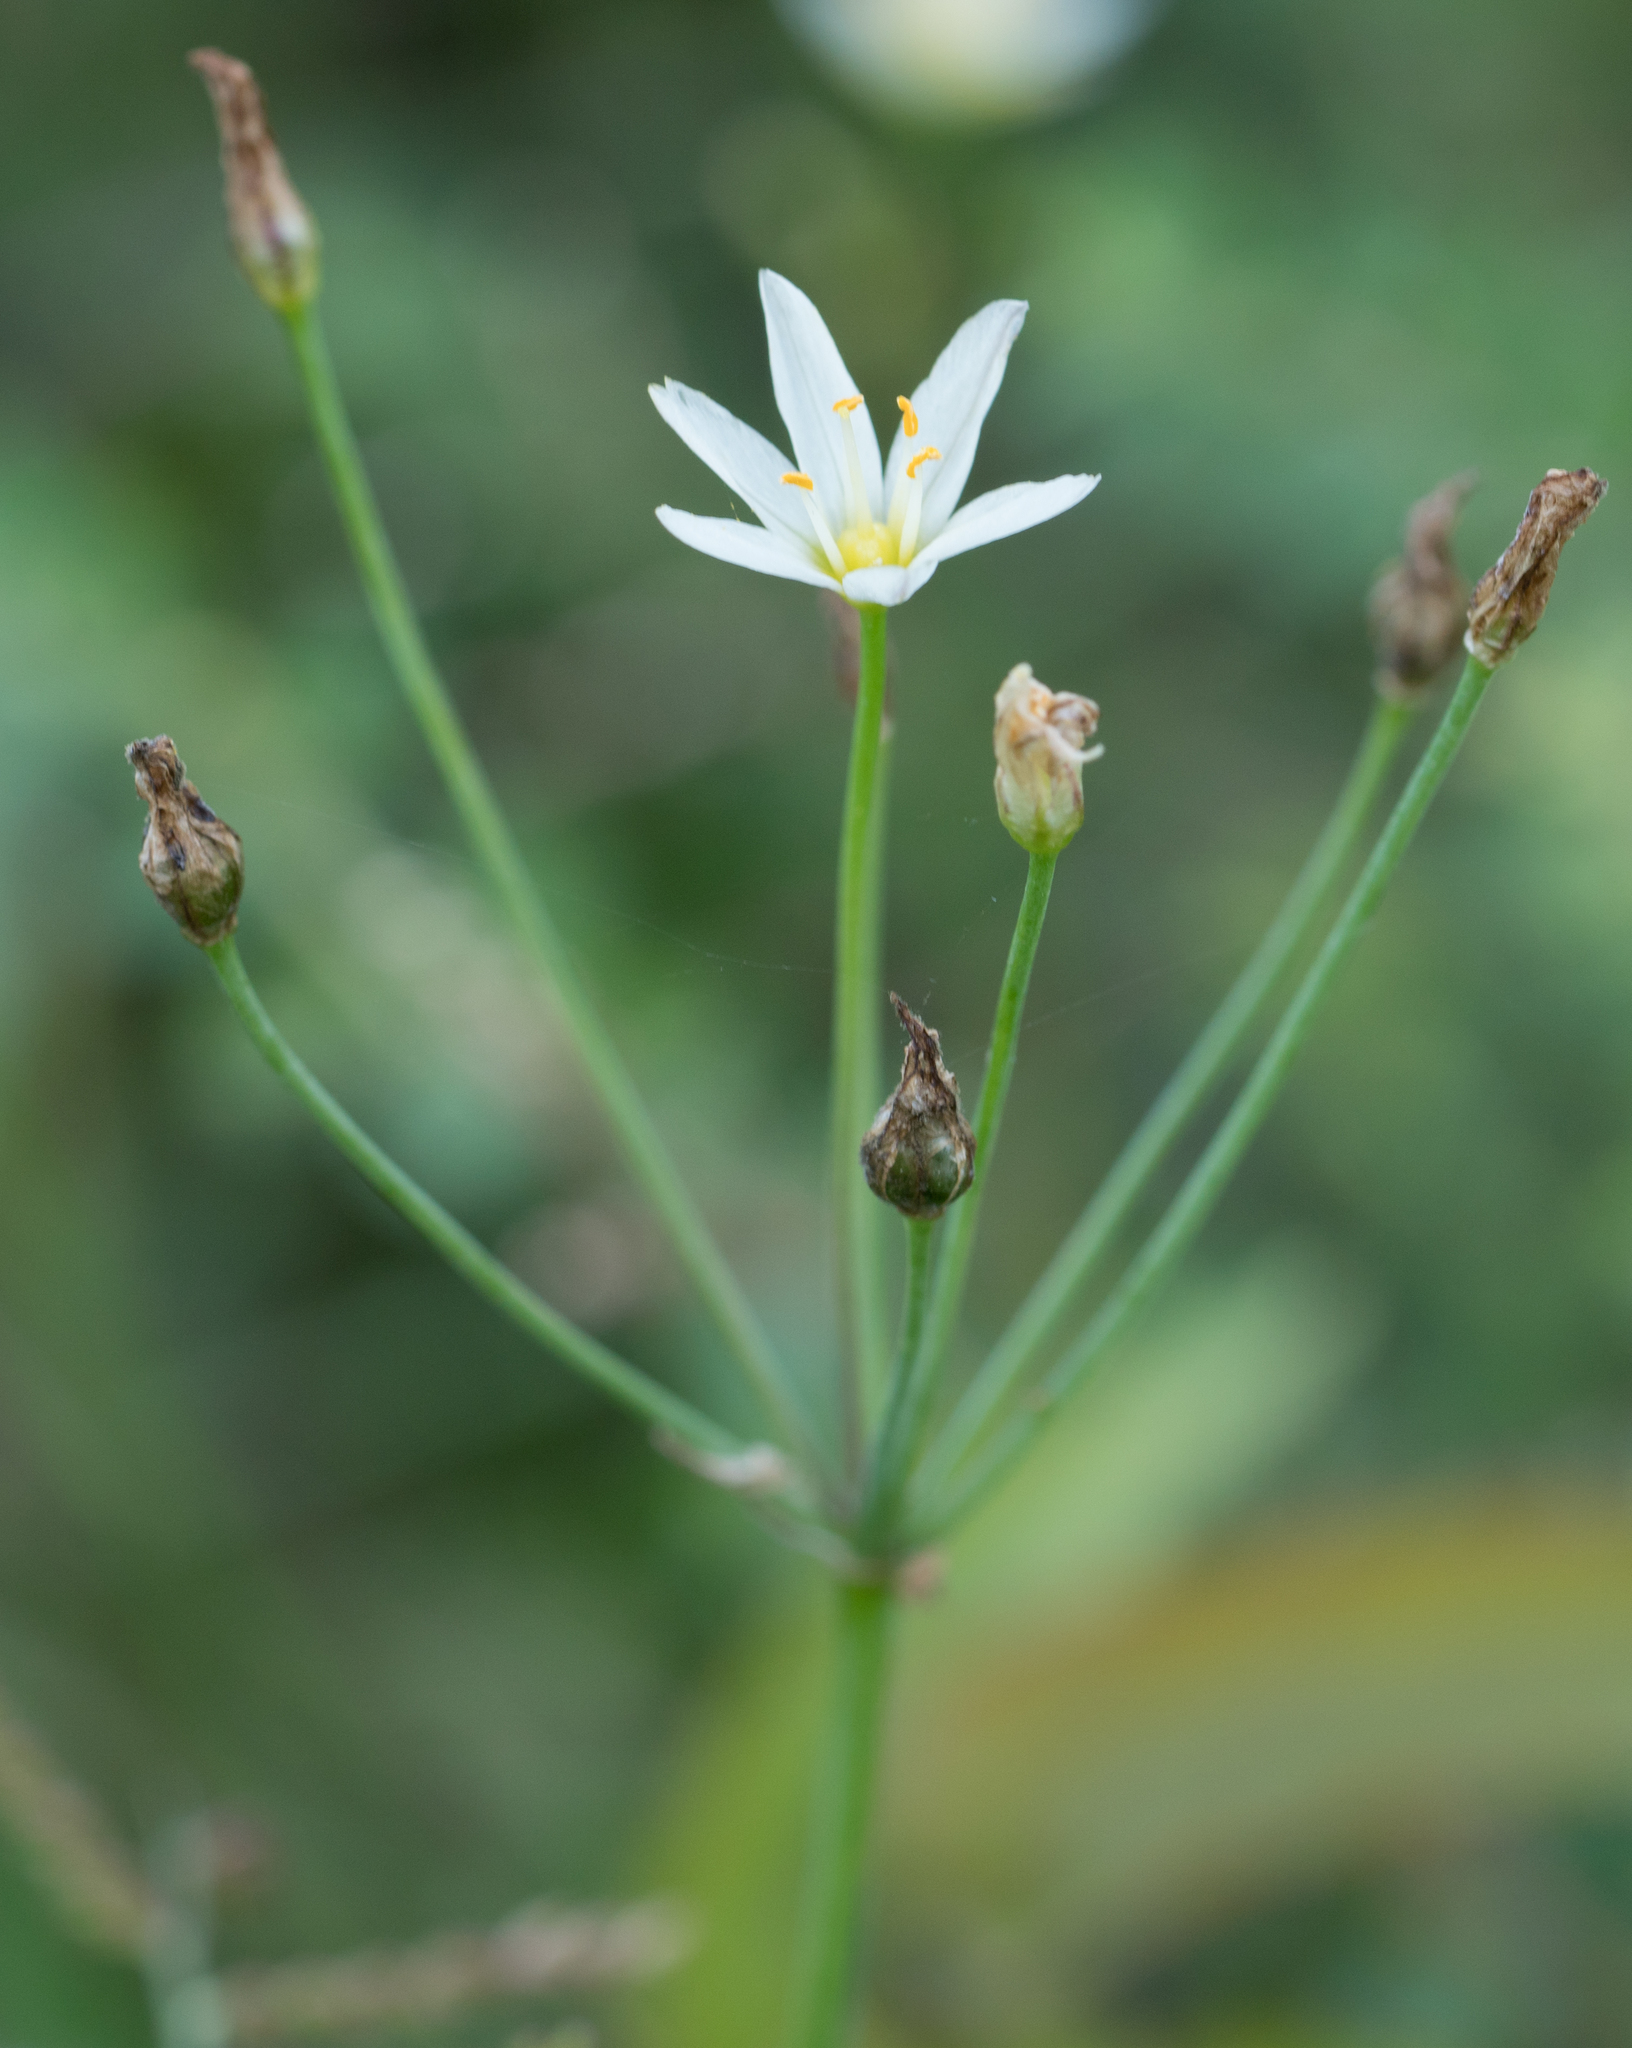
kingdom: Plantae
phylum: Tracheophyta
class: Liliopsida
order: Asparagales
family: Amaryllidaceae
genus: Nothoscordum
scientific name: Nothoscordum bivalve
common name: Crow-poison
